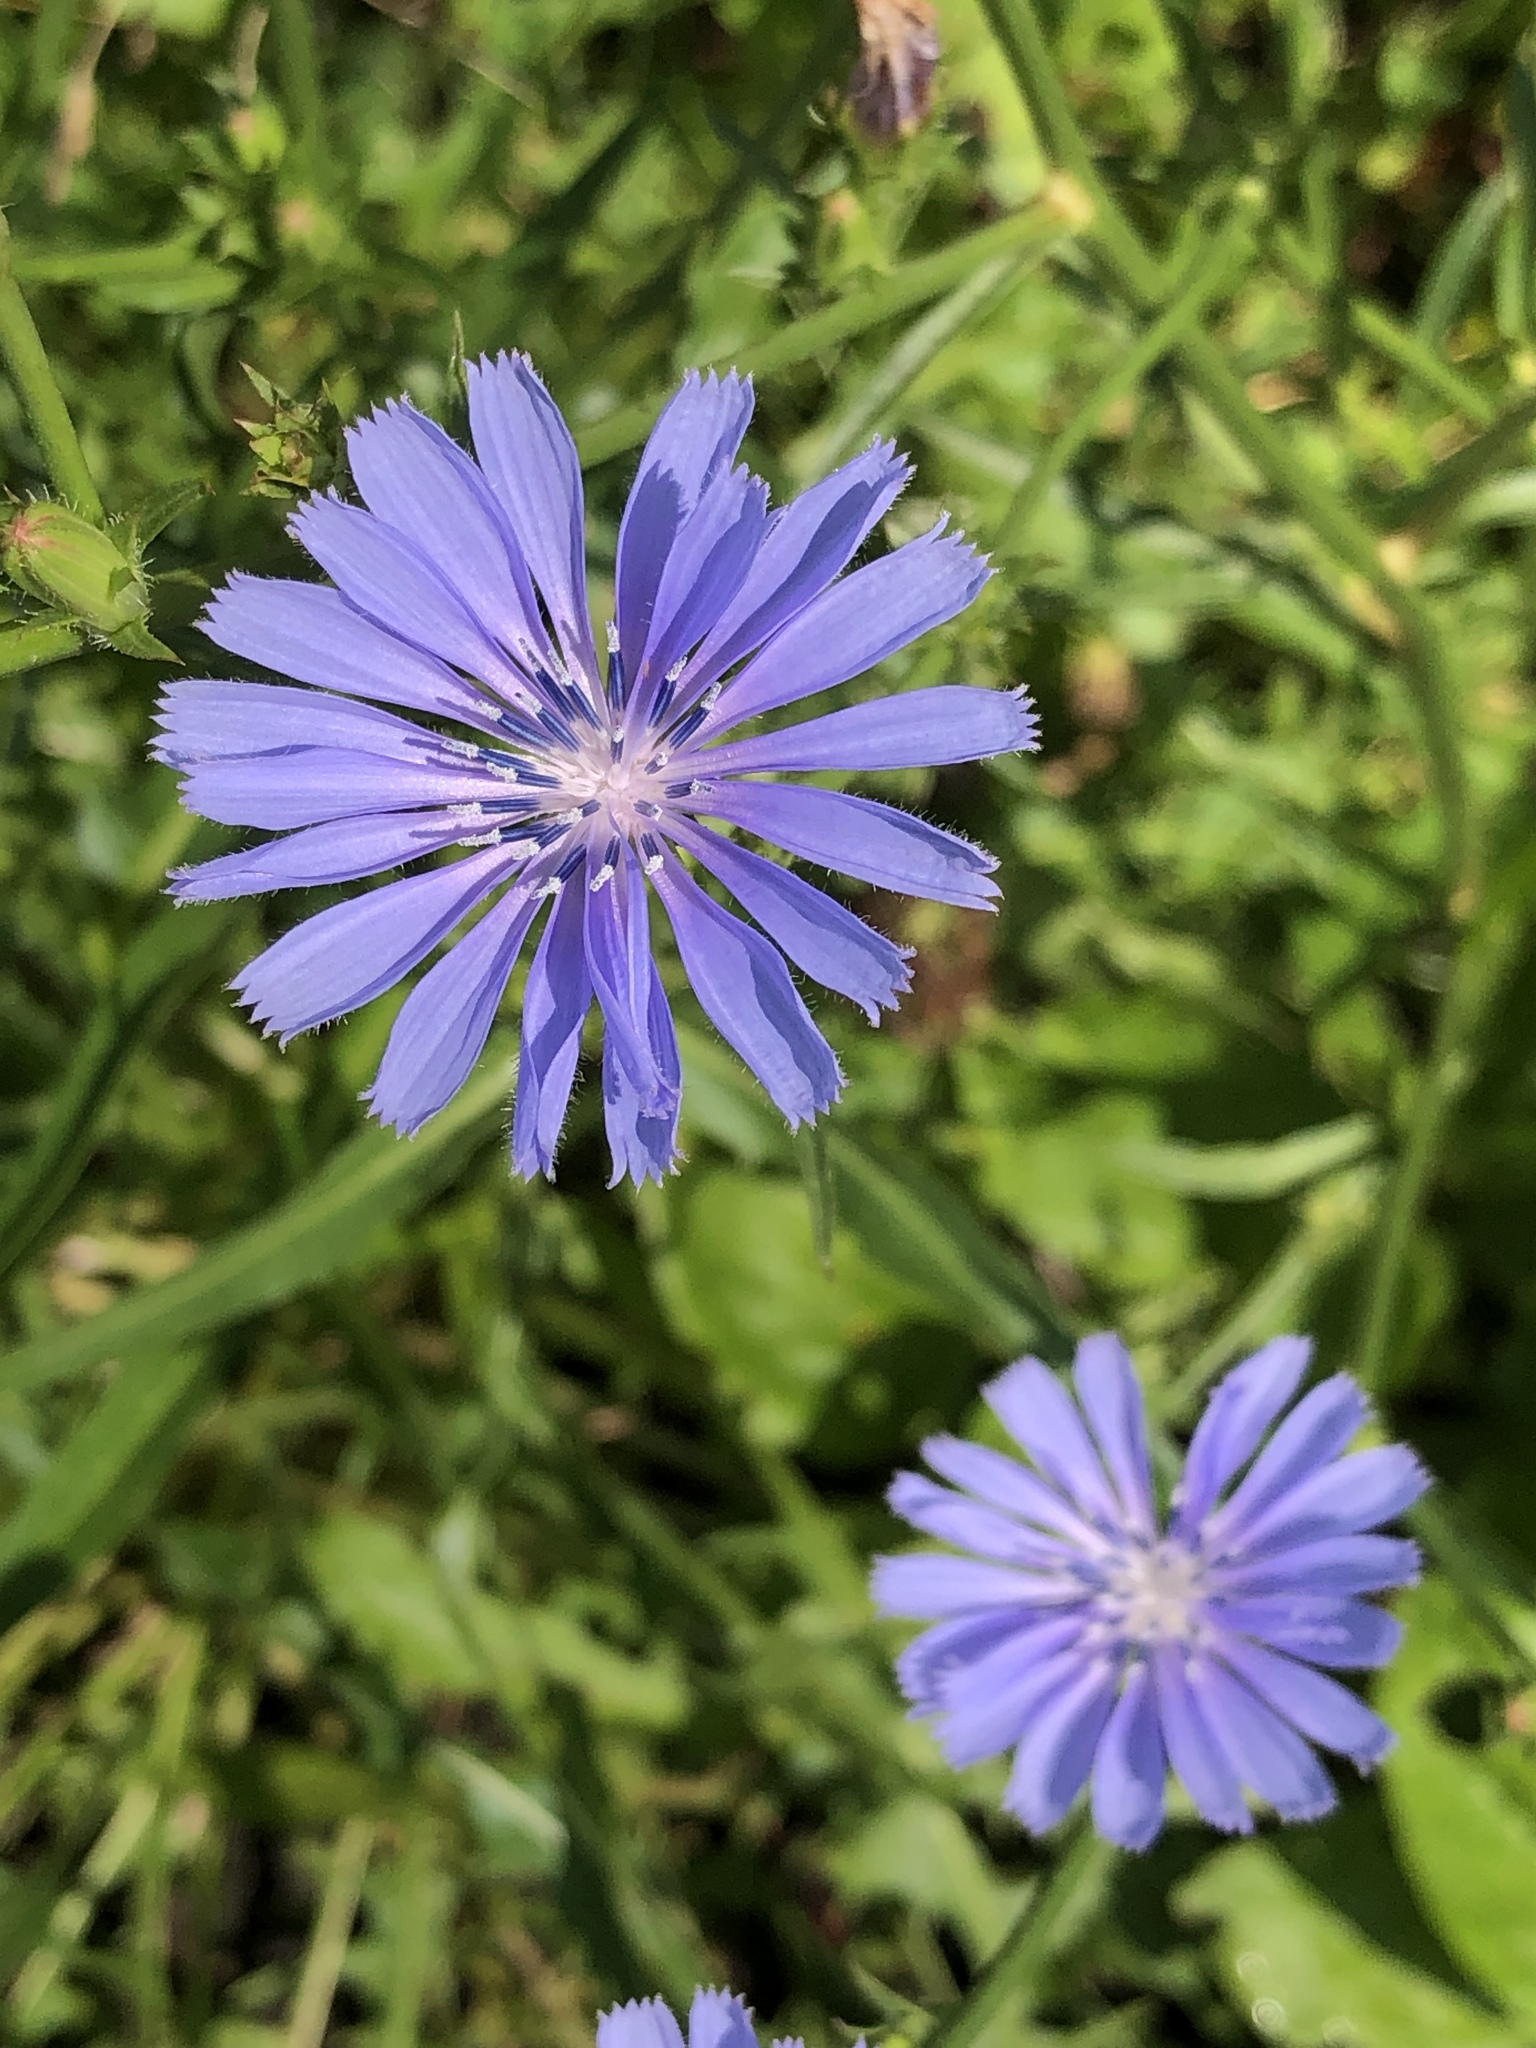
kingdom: Plantae
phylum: Tracheophyta
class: Magnoliopsida
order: Asterales
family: Asteraceae
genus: Cichorium
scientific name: Cichorium intybus
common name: Chicory
